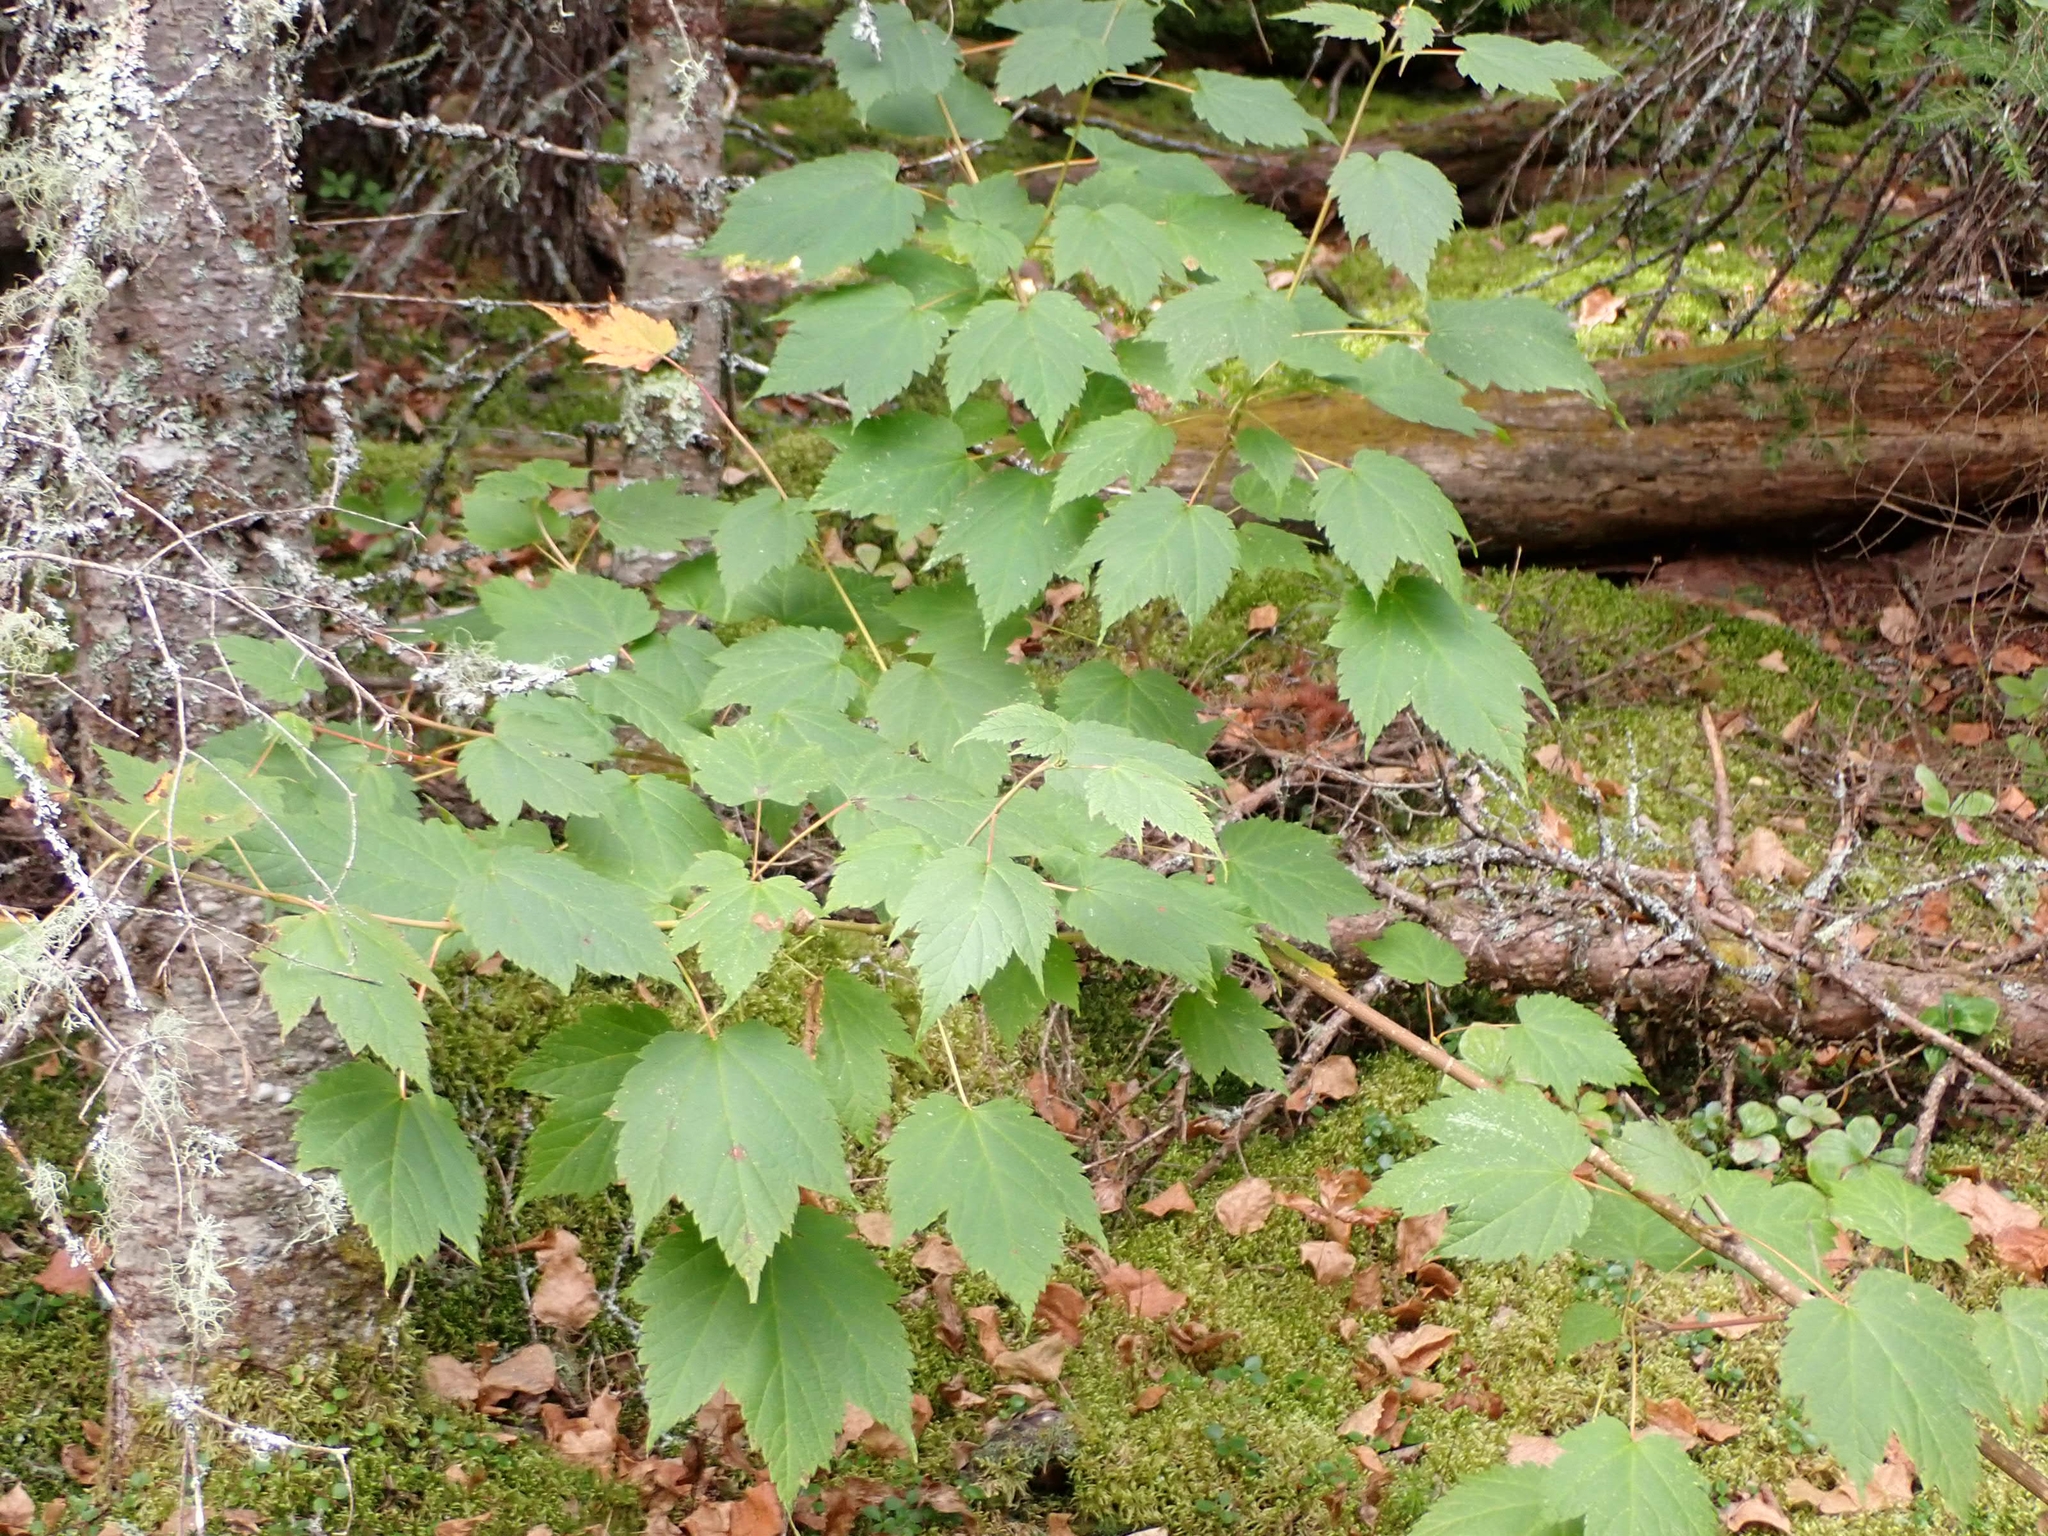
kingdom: Plantae
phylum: Tracheophyta
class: Magnoliopsida
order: Sapindales
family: Sapindaceae
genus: Acer
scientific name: Acer spicatum
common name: Mountain maple
